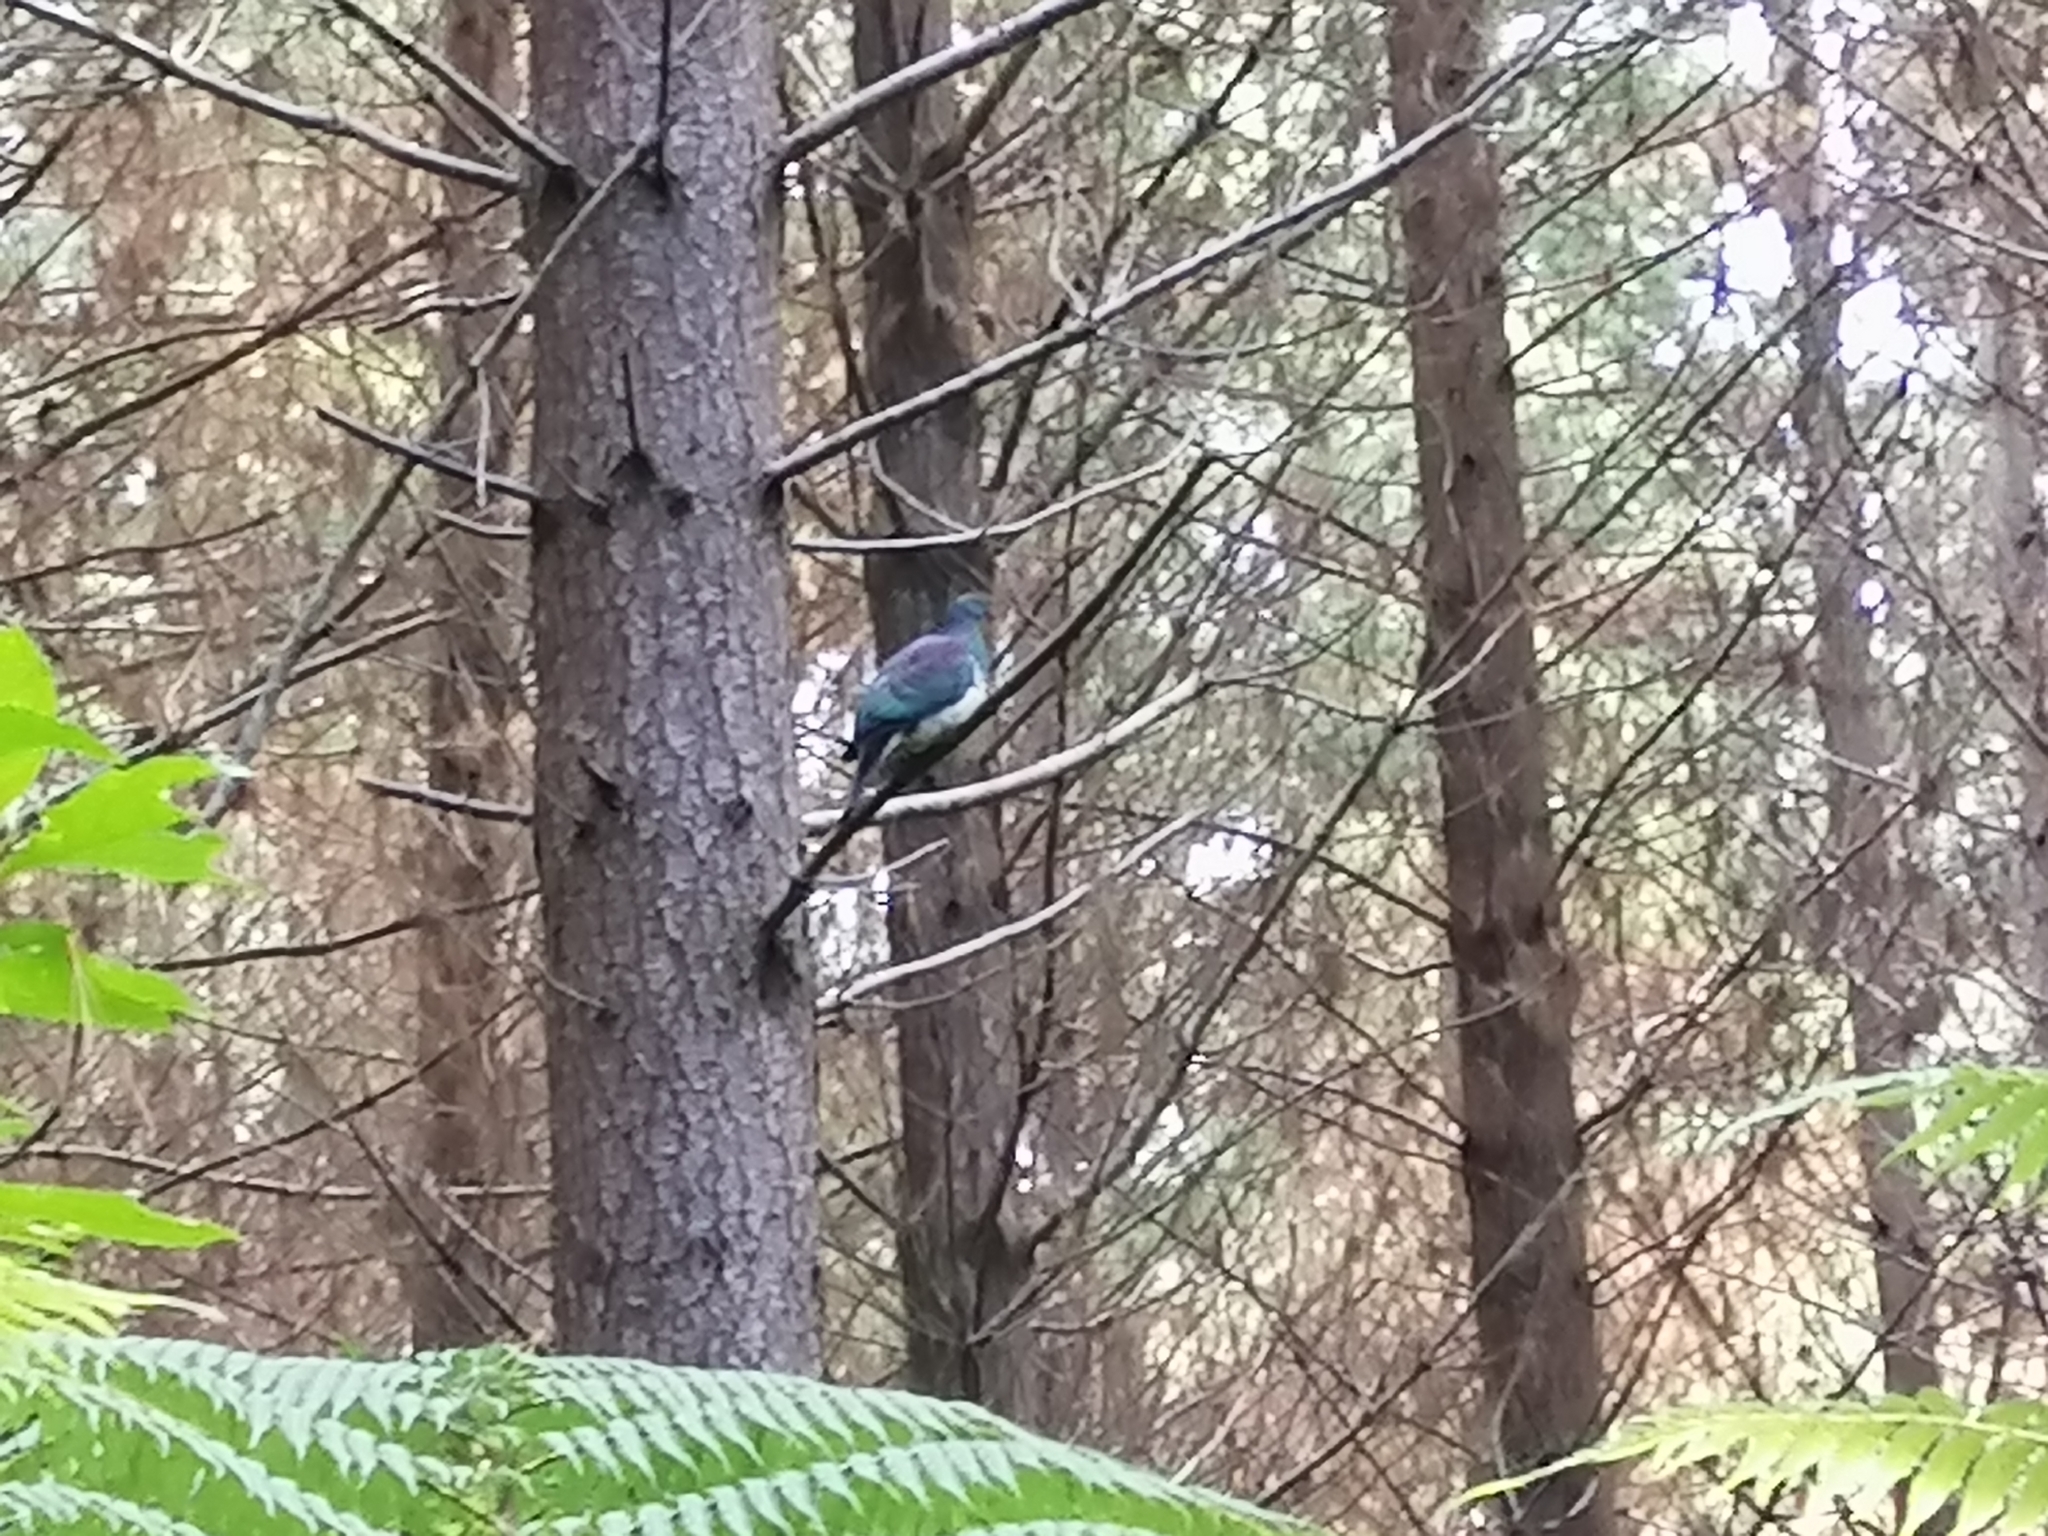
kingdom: Animalia
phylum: Chordata
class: Aves
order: Columbiformes
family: Columbidae
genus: Hemiphaga
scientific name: Hemiphaga novaeseelandiae
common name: New zealand pigeon
